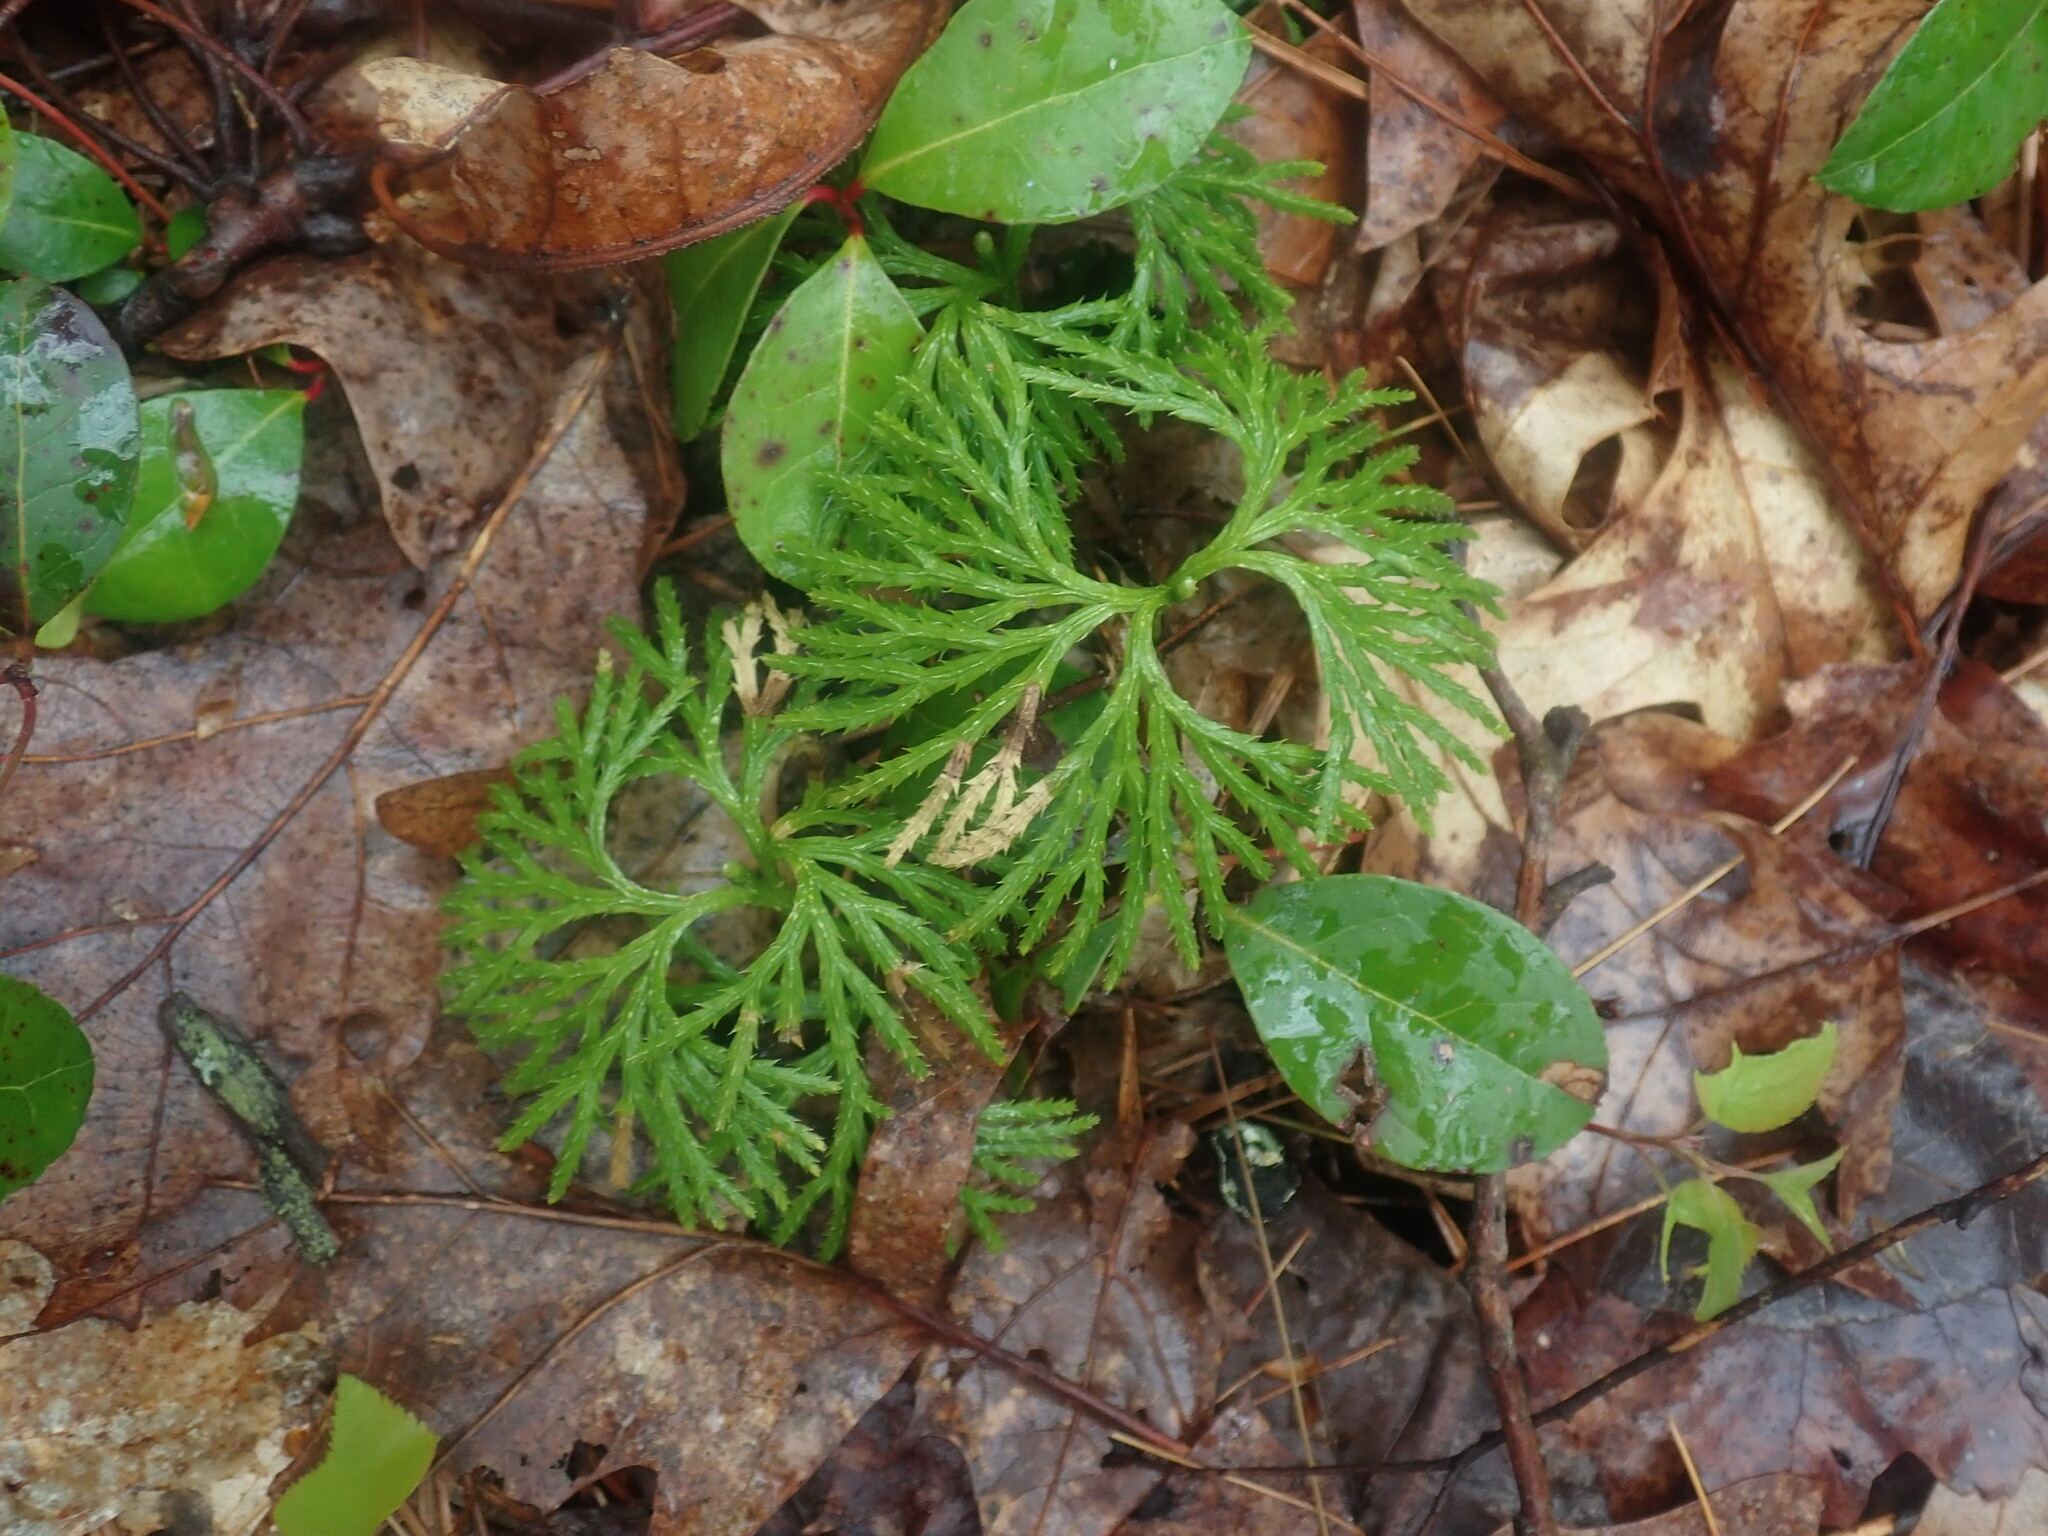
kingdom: Plantae
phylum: Tracheophyta
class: Lycopodiopsida
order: Lycopodiales
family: Lycopodiaceae
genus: Diphasiastrum
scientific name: Diphasiastrum digitatum
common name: Southern running-pine
